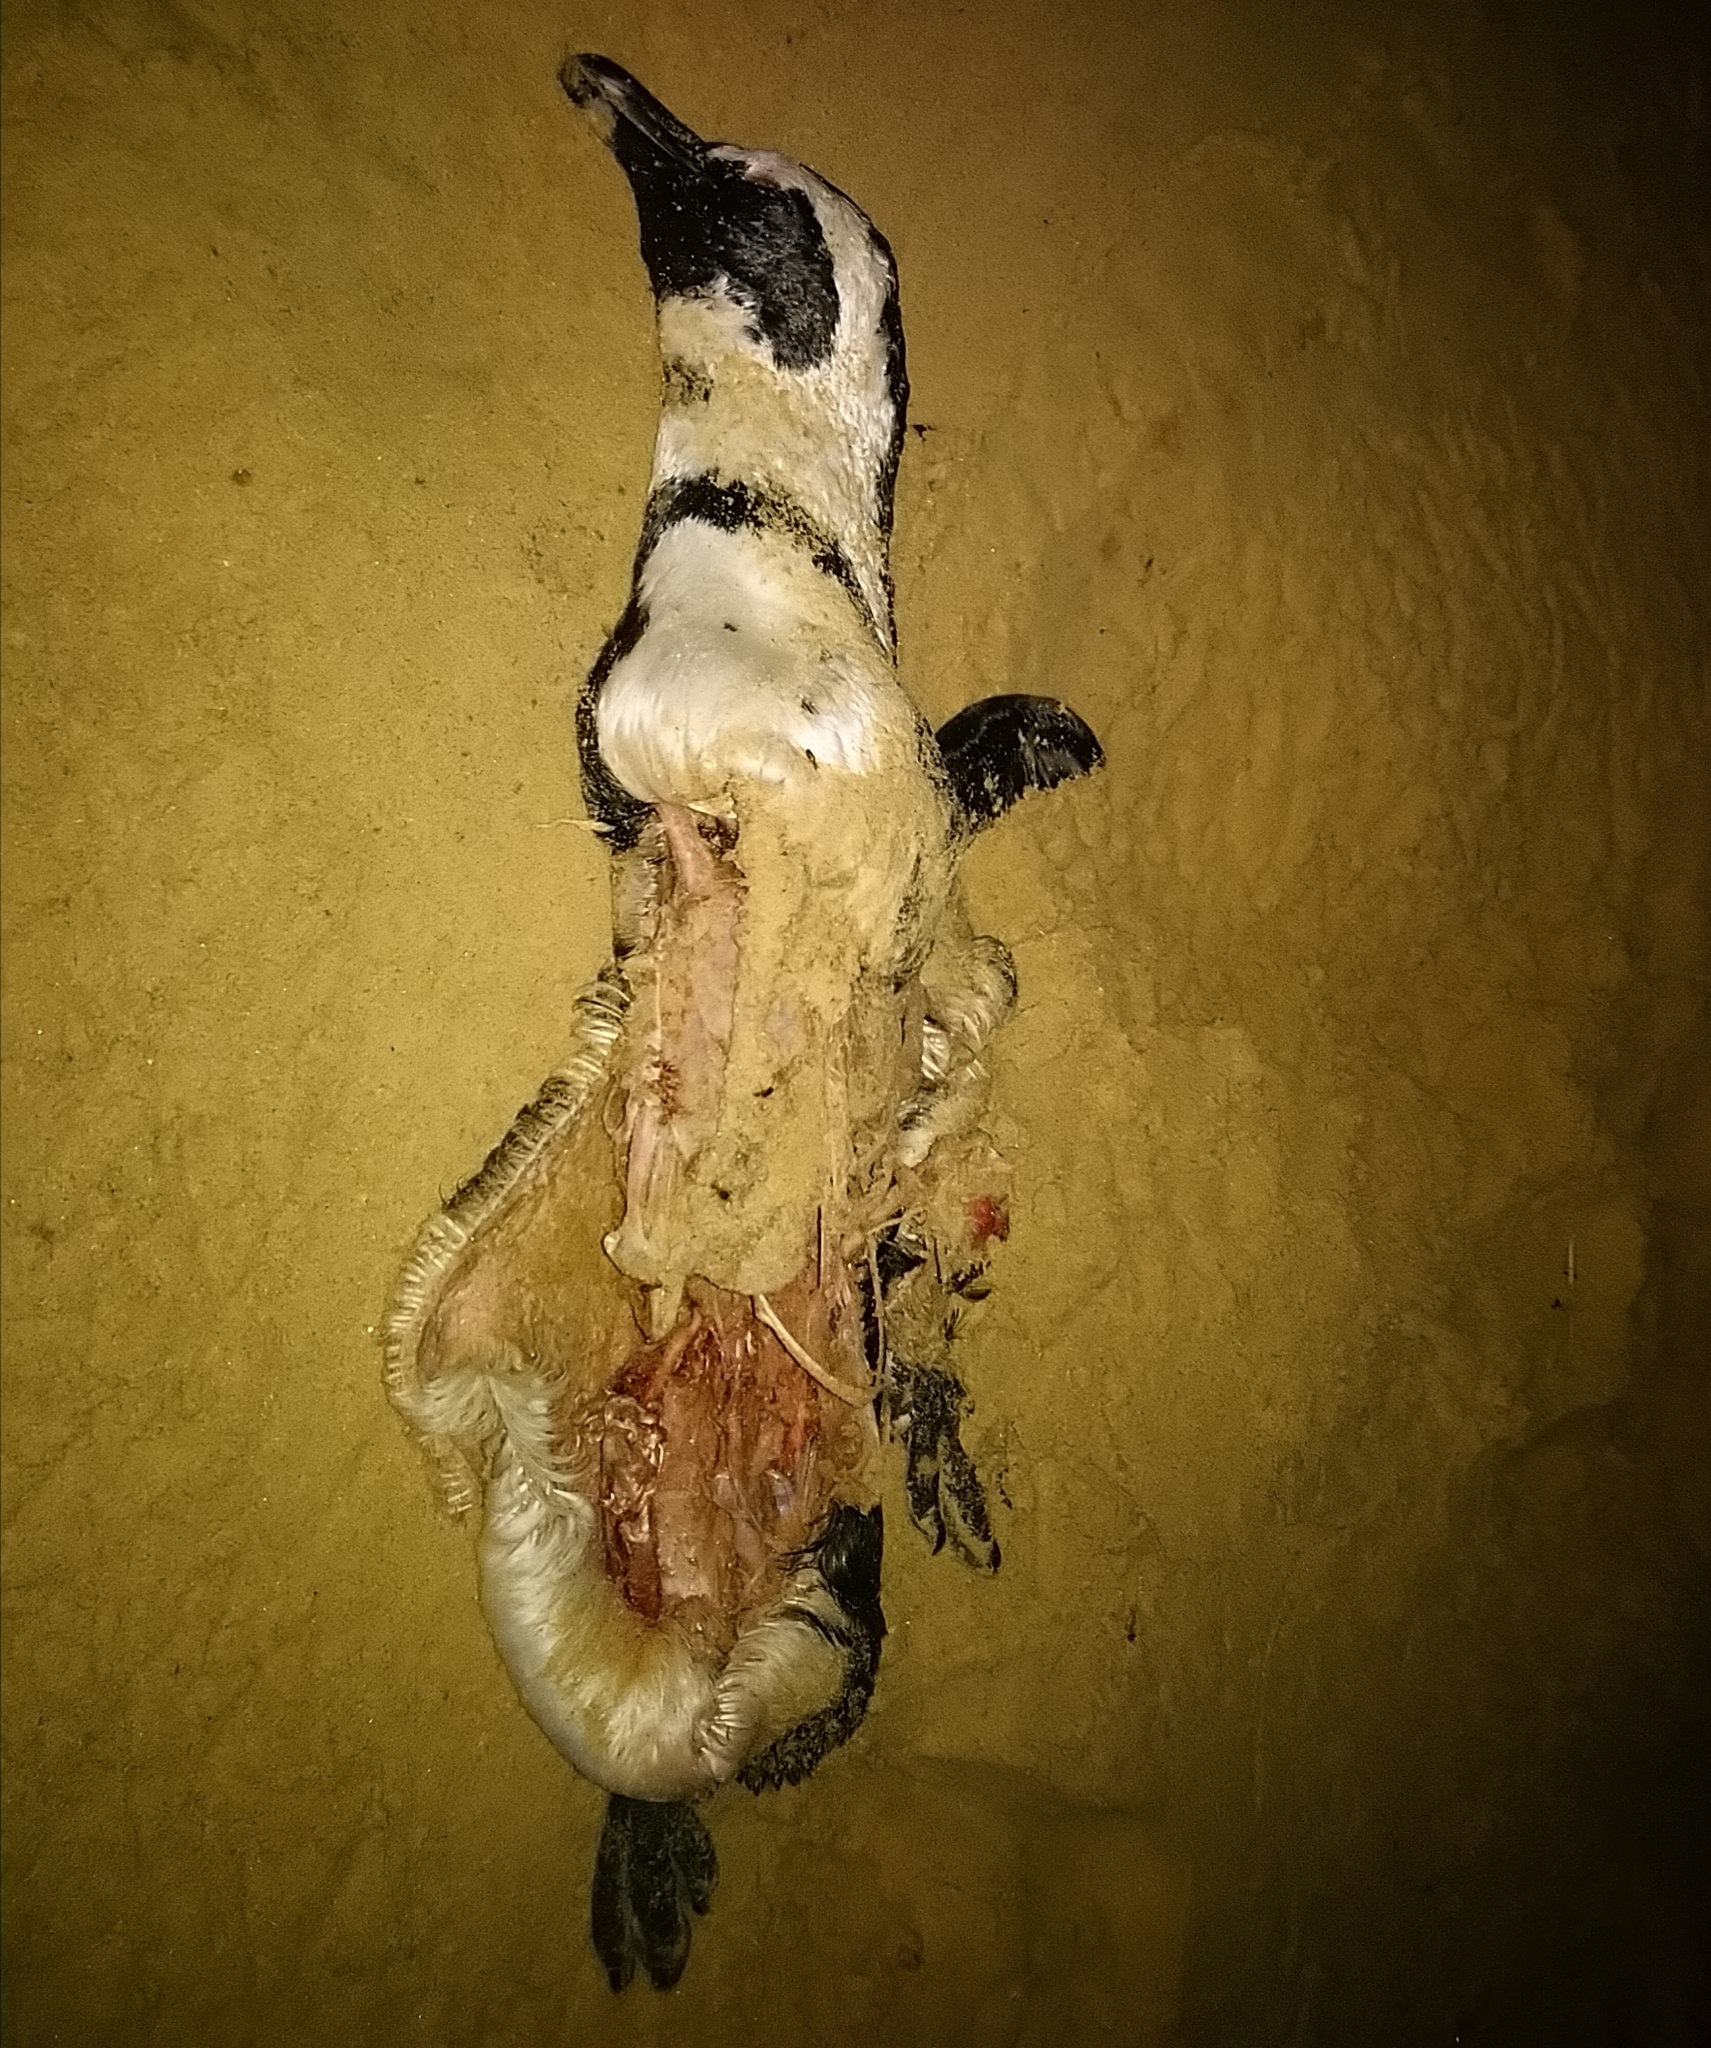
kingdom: Animalia
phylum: Chordata
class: Aves
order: Sphenisciformes
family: Spheniscidae
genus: Spheniscus
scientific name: Spheniscus demersus
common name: African penguin
